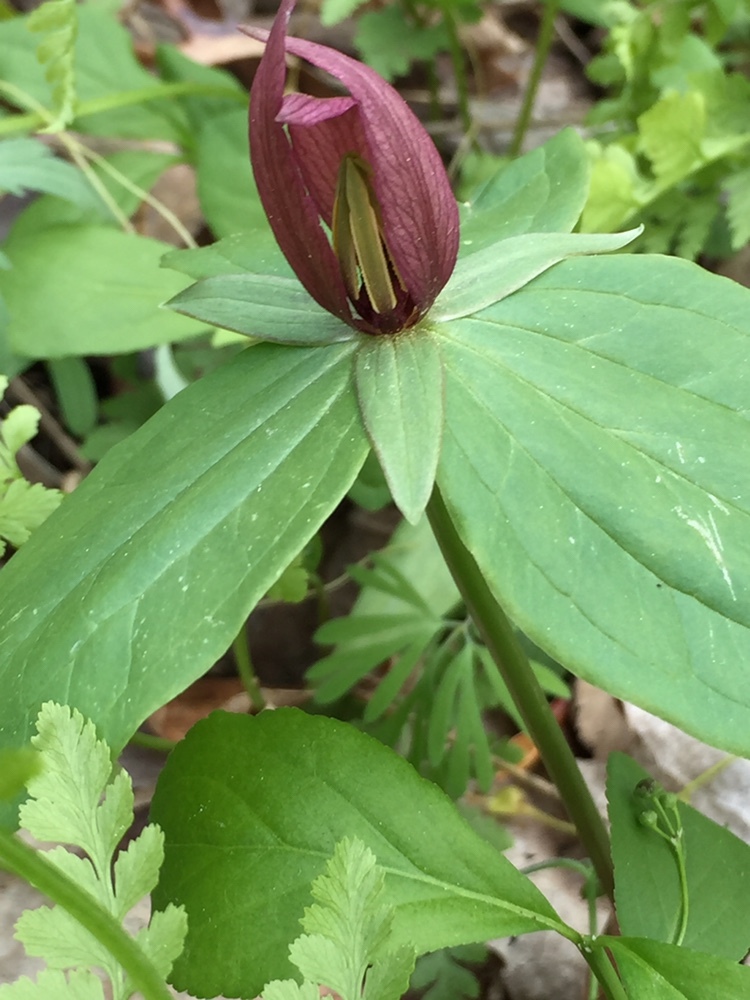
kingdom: Plantae
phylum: Tracheophyta
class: Liliopsida
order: Liliales
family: Melanthiaceae
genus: Trillium
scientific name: Trillium sessile
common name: Sessile trillium
